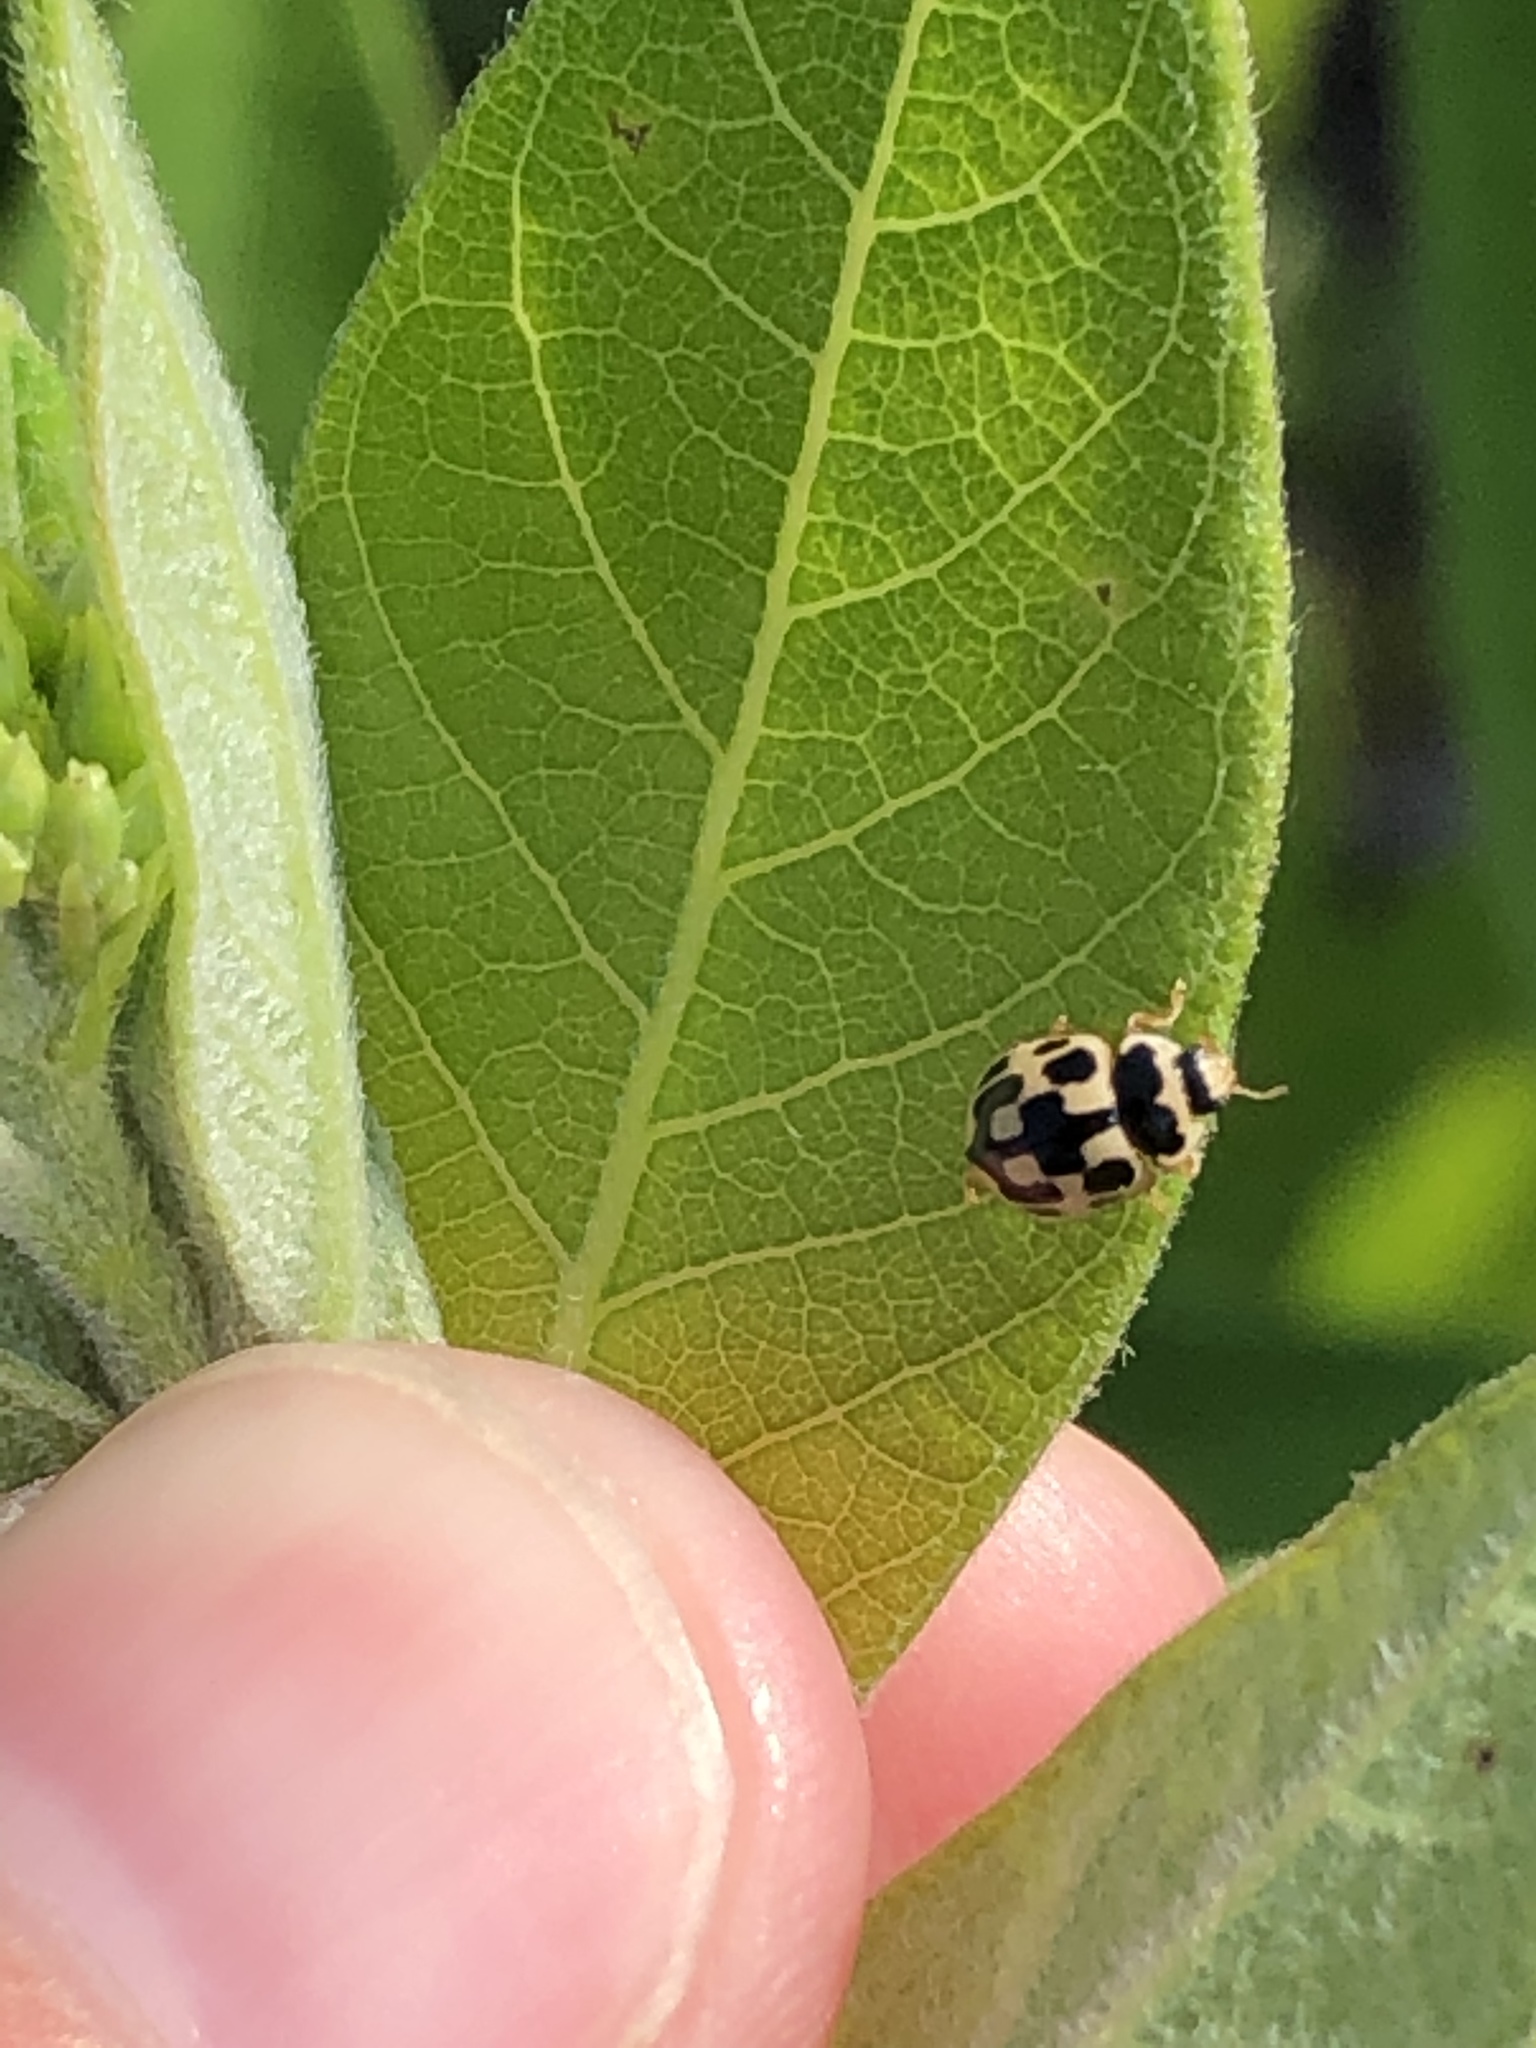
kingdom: Animalia
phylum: Arthropoda
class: Insecta
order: Coleoptera
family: Coccinellidae
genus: Propylaea
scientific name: Propylaea quatuordecimpunctata
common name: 14-spotted ladybird beetle
